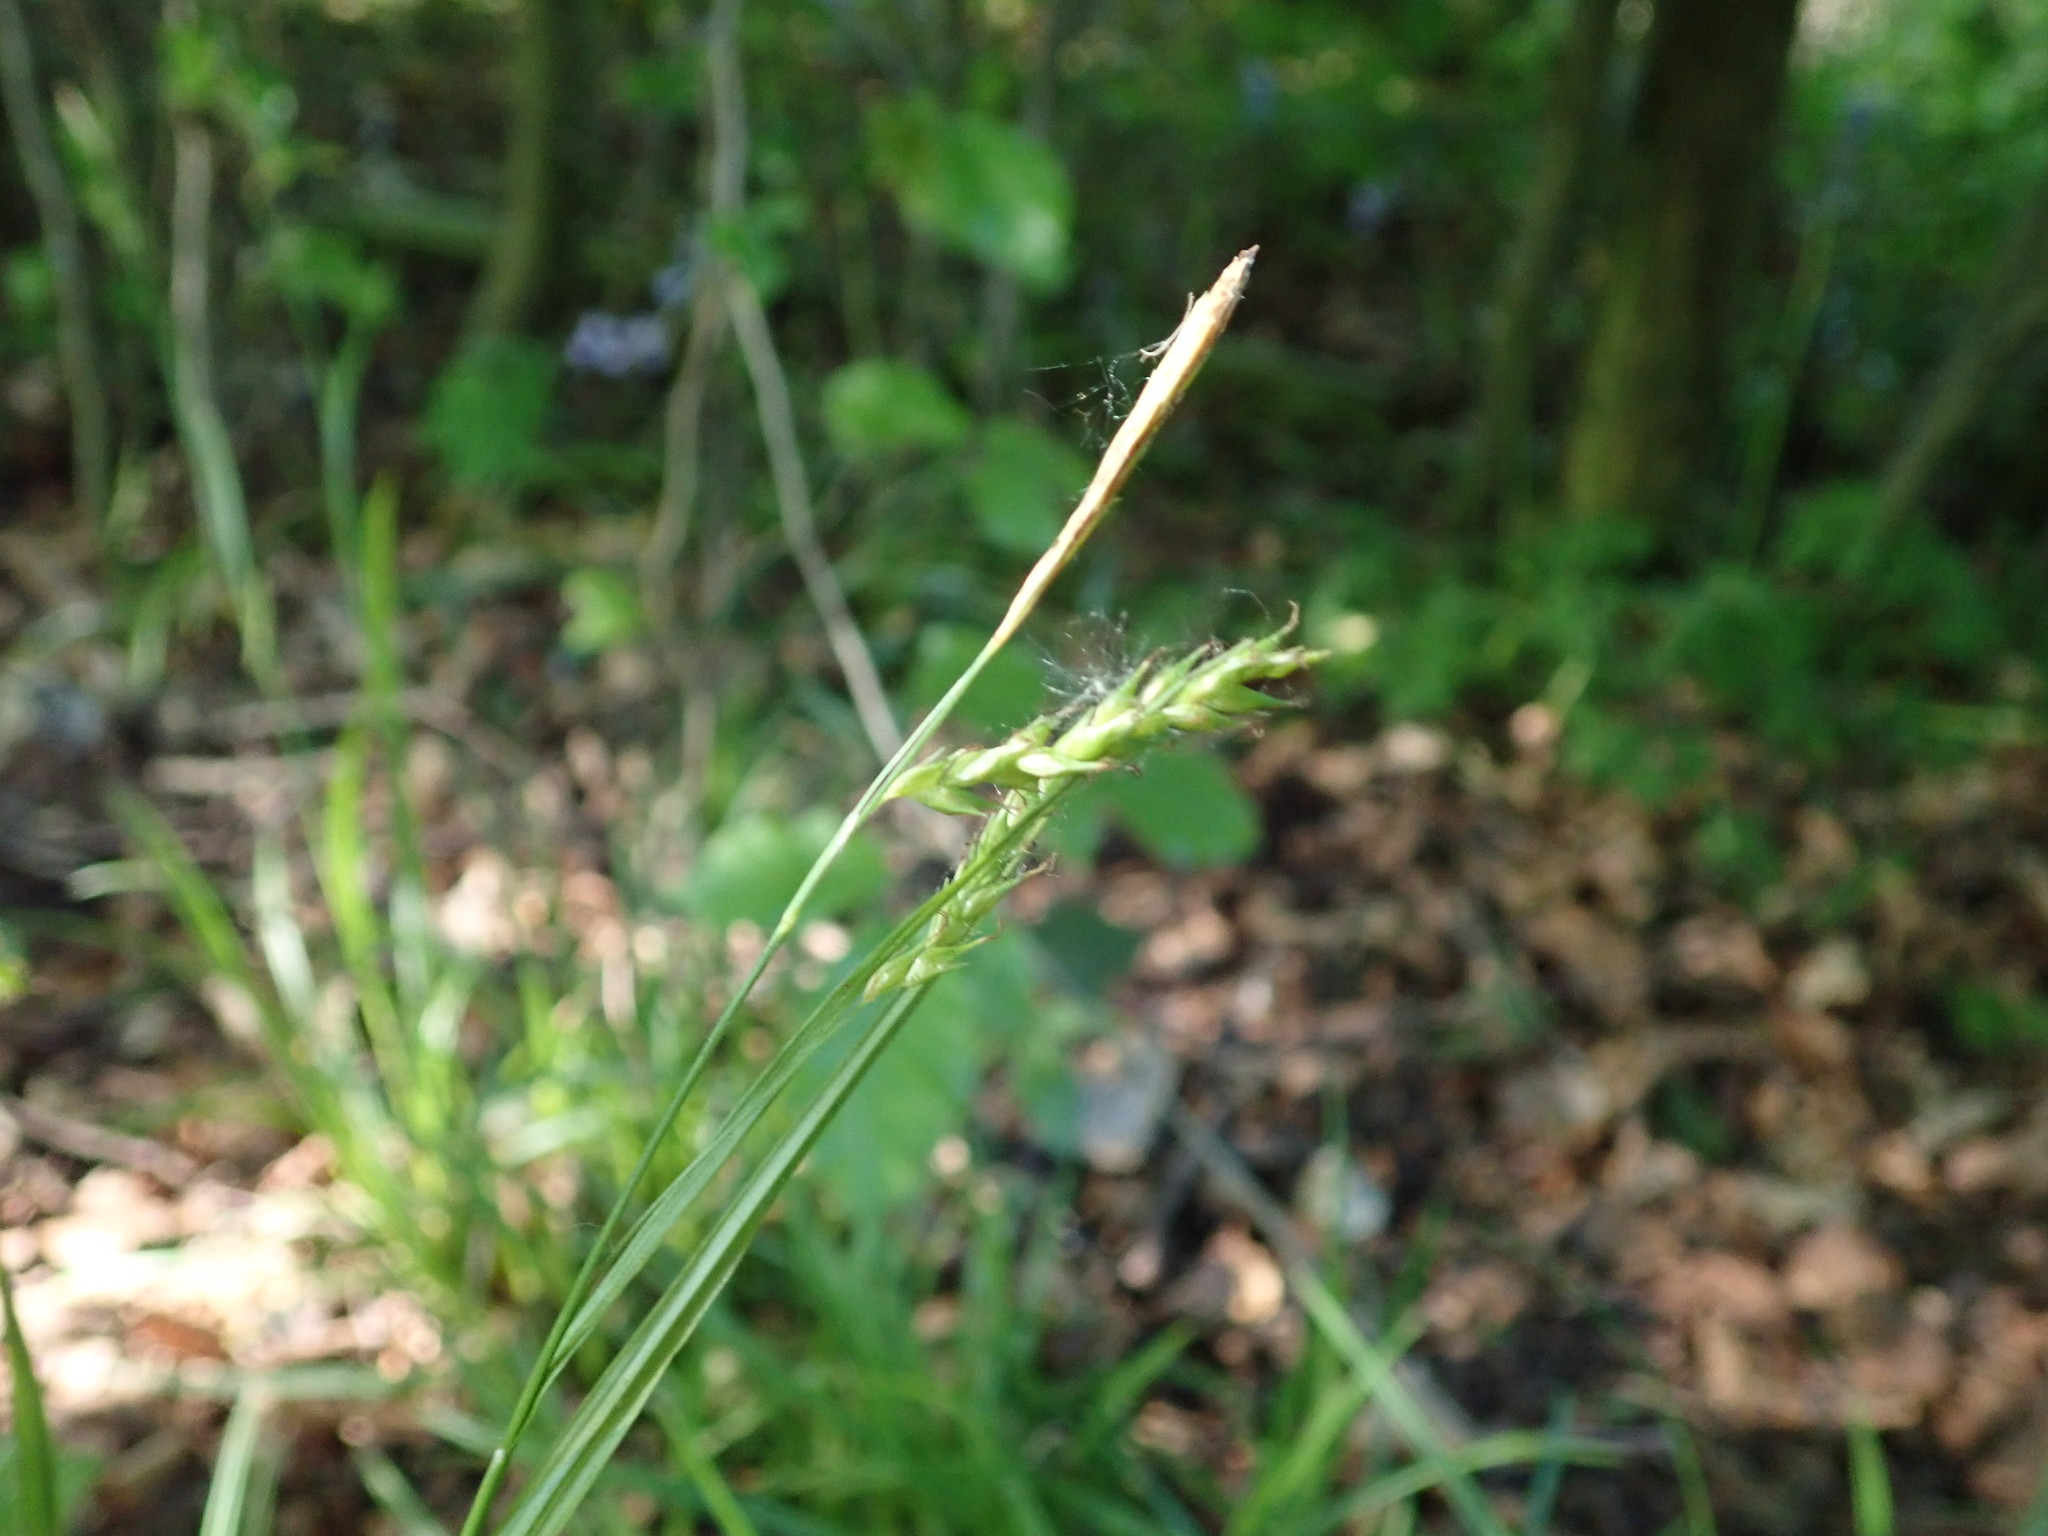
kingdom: Plantae
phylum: Tracheophyta
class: Liliopsida
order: Poales
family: Cyperaceae
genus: Carex
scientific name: Carex sylvatica
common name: Wood-sedge
